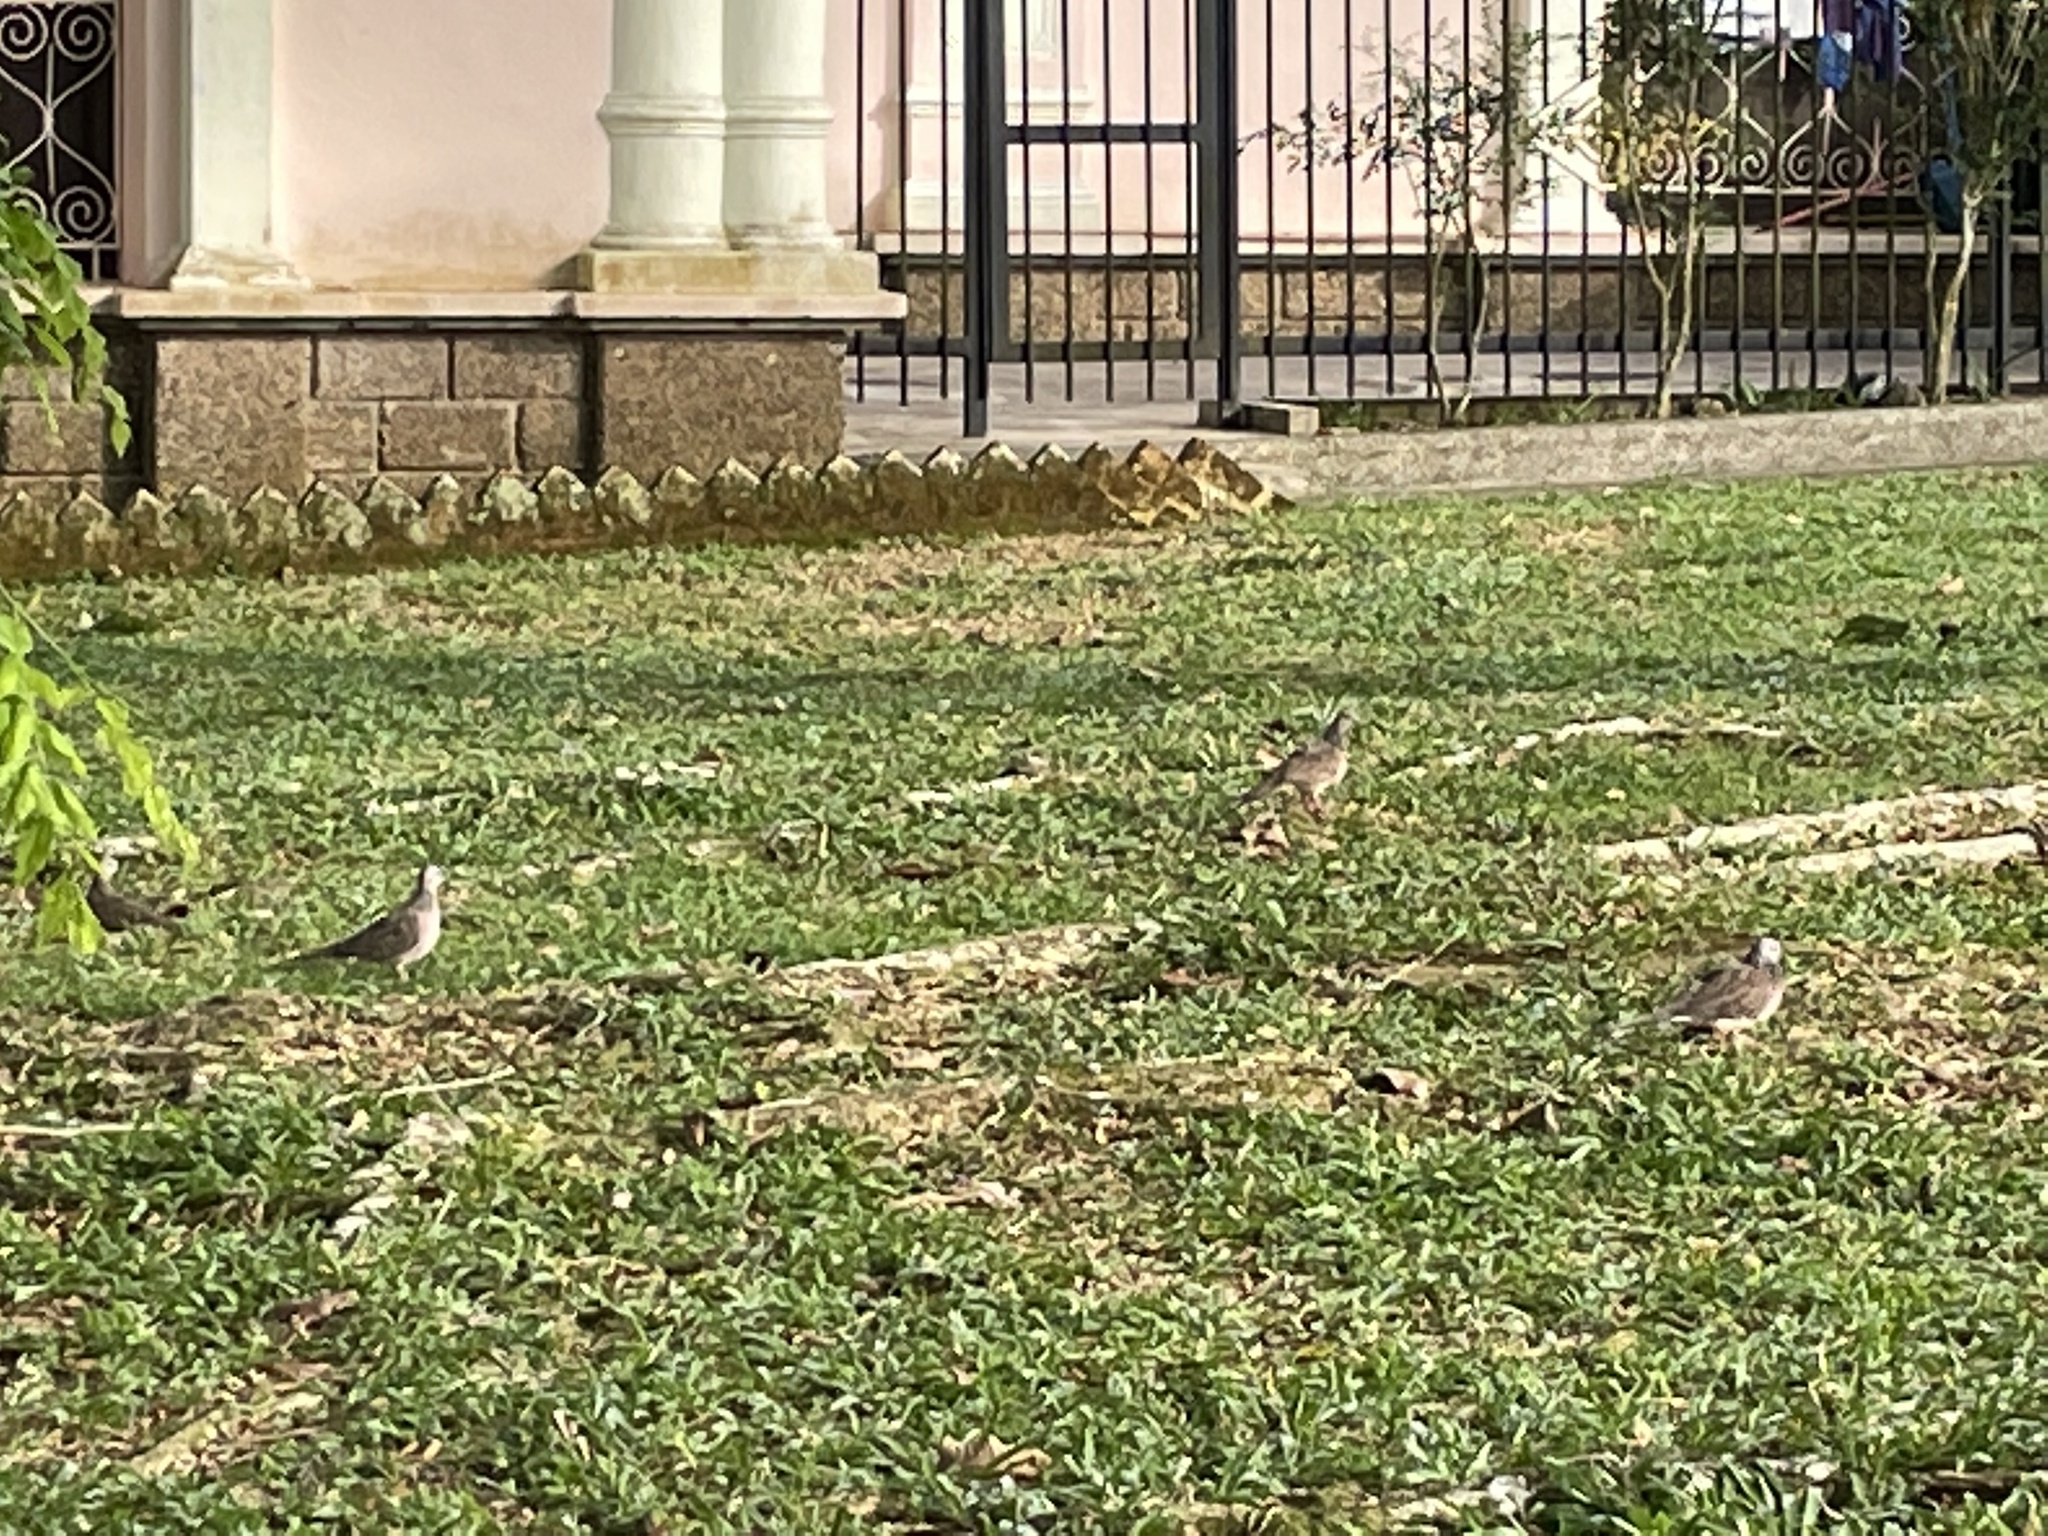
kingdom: Animalia
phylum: Chordata
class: Aves
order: Columbiformes
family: Columbidae
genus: Spilopelia
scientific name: Spilopelia chinensis
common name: Spotted dove
